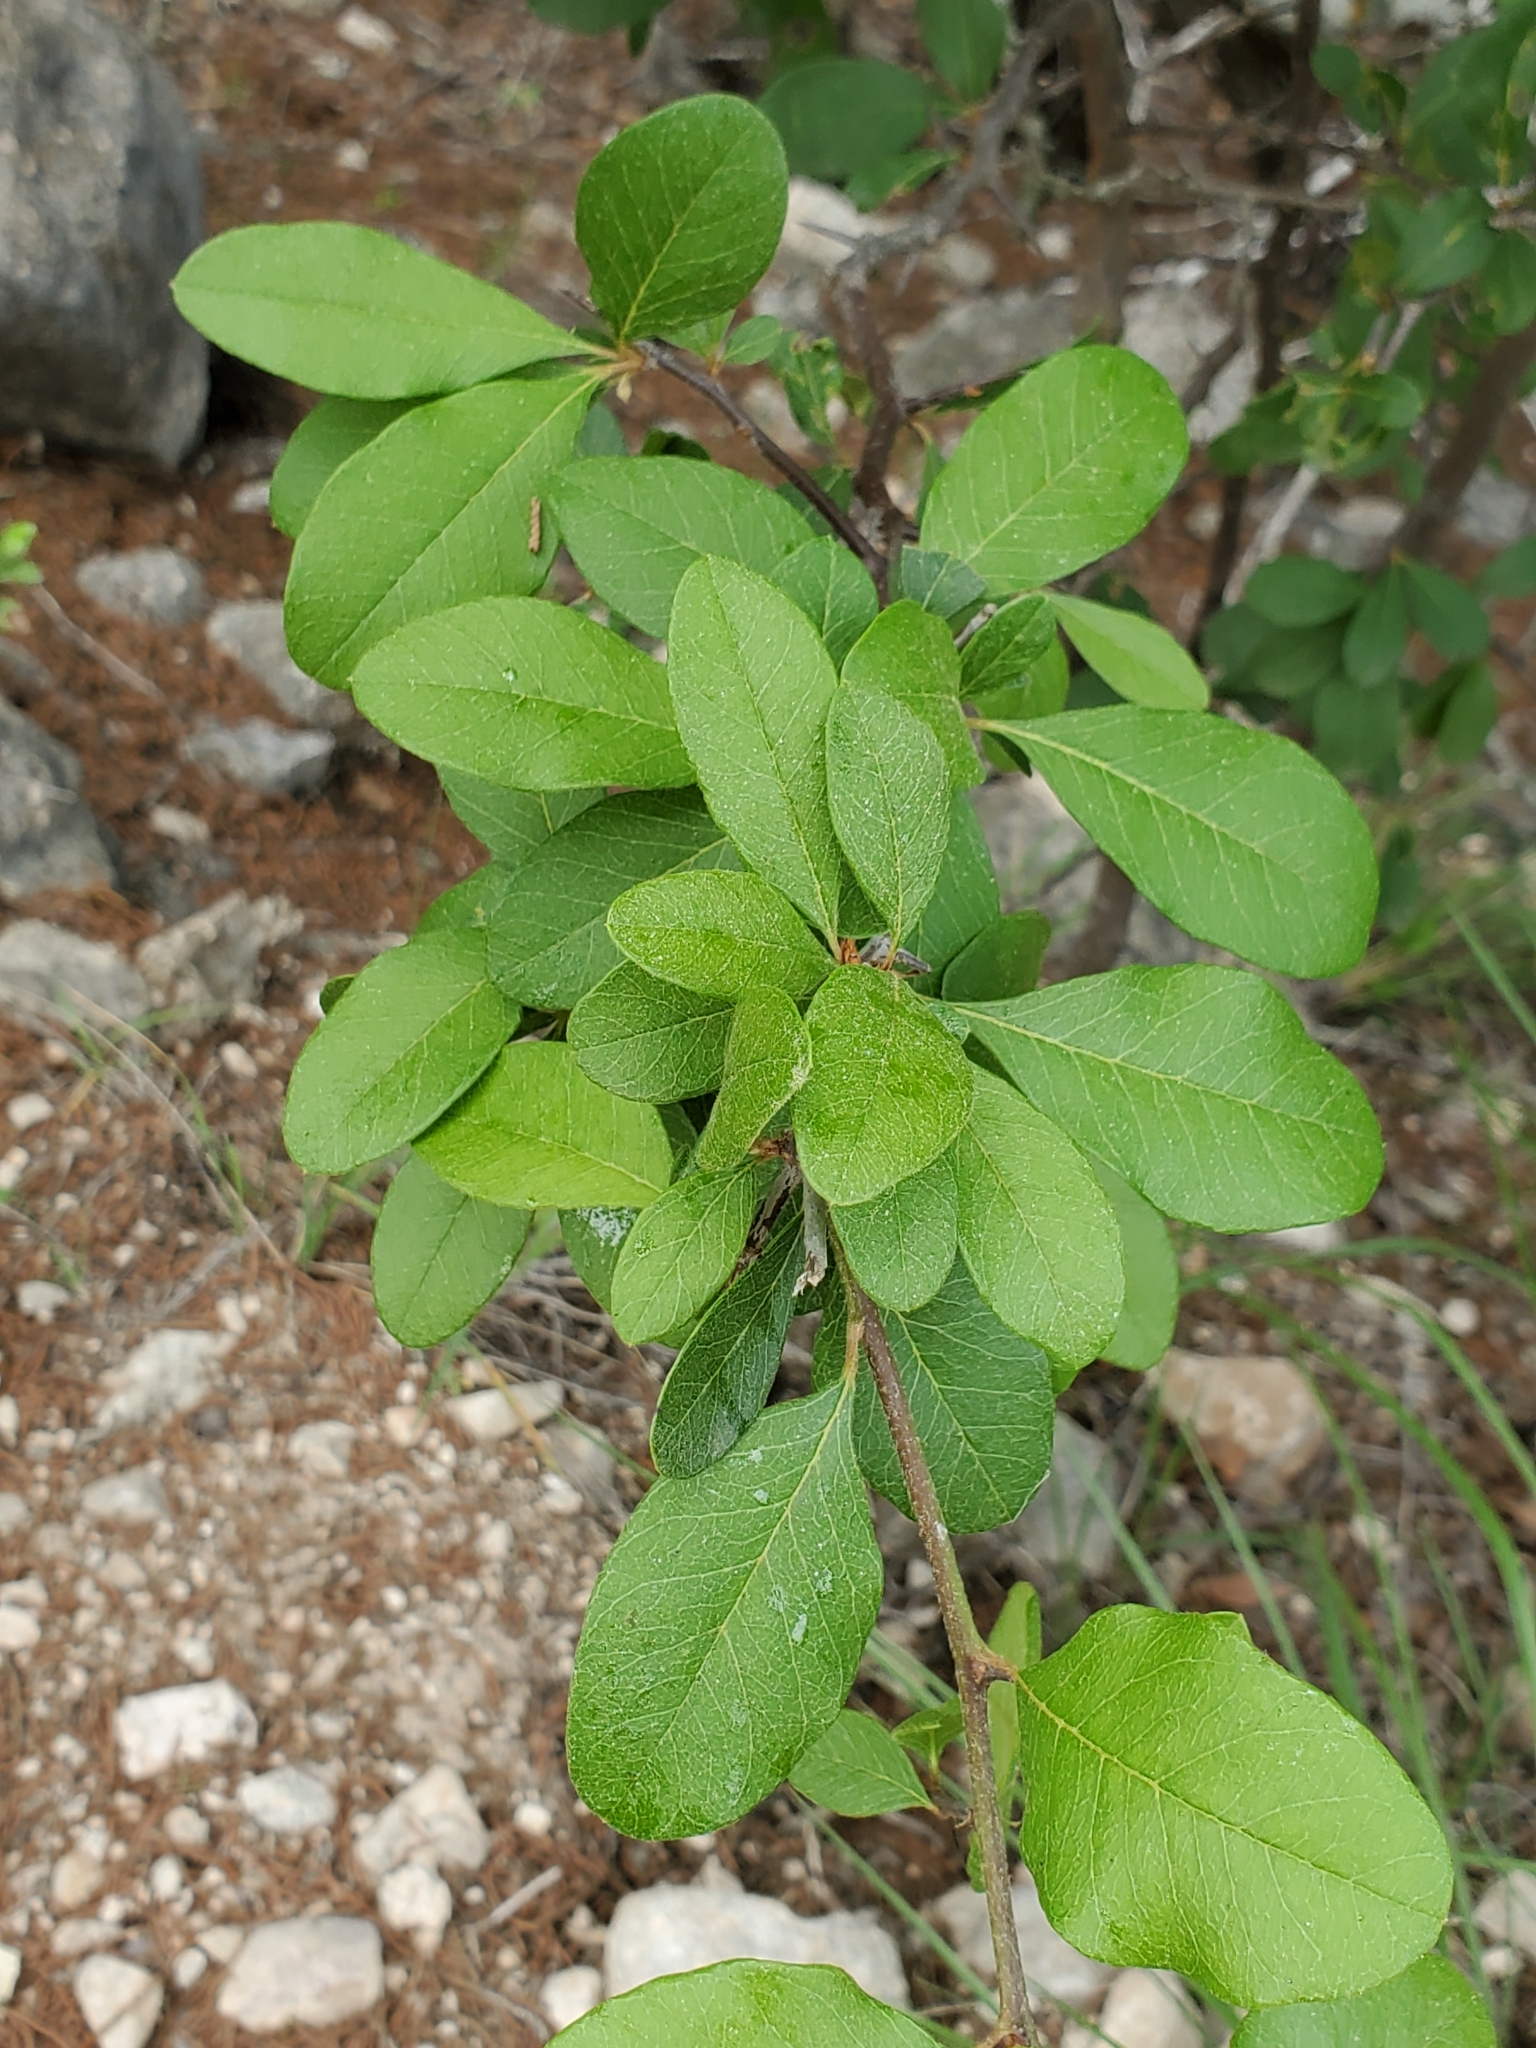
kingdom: Plantae
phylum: Tracheophyta
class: Magnoliopsida
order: Ericales
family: Sapotaceae
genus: Sideroxylon
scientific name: Sideroxylon lanuginosum
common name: Chittamwood
